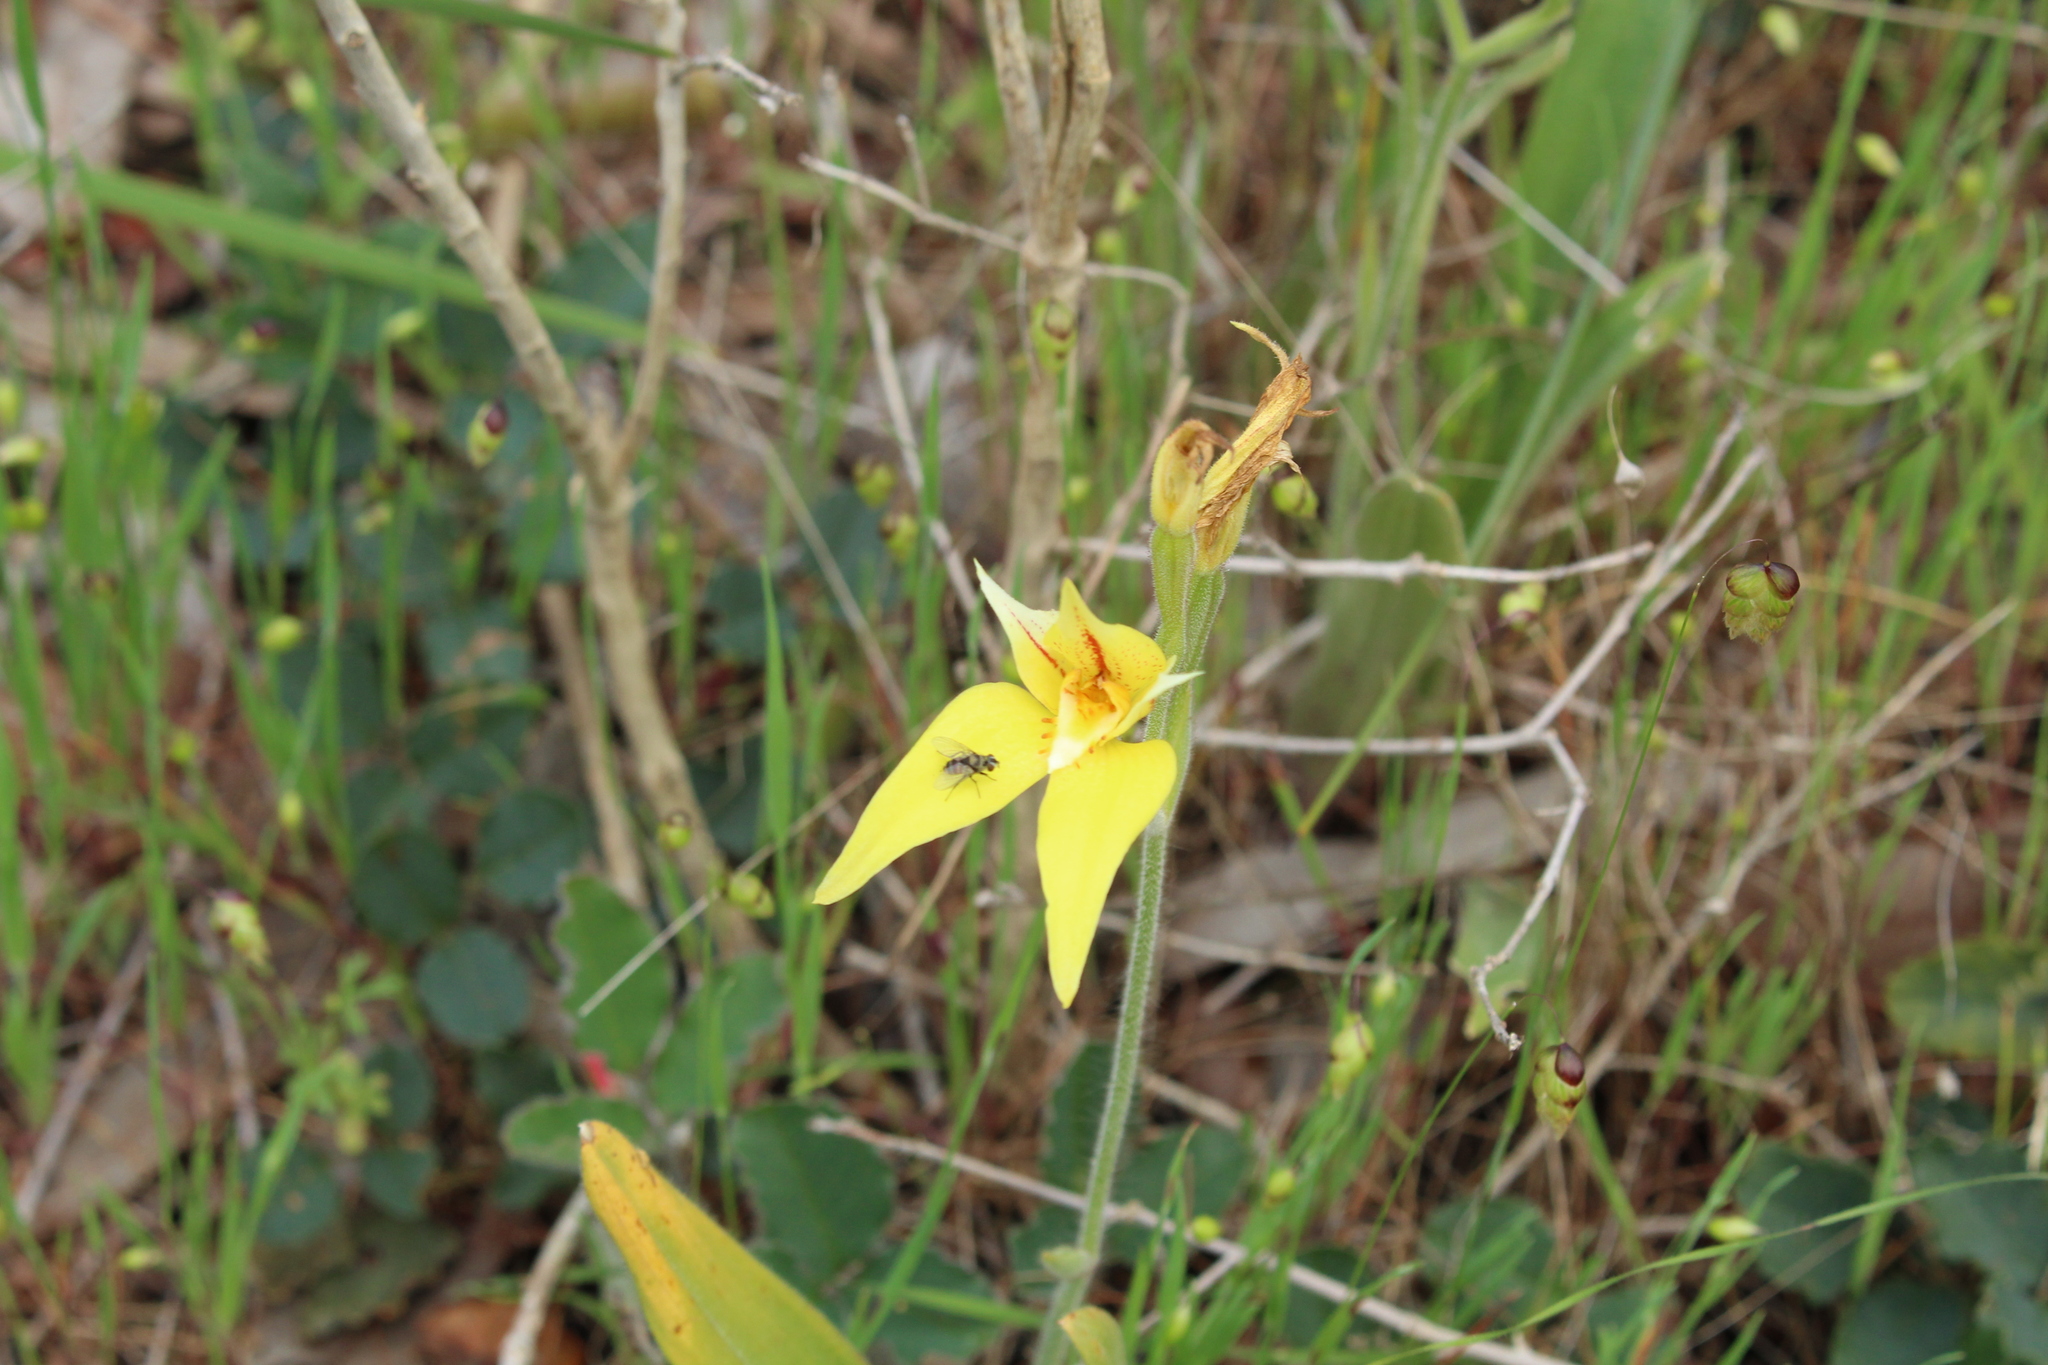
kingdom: Plantae
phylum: Tracheophyta
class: Liliopsida
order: Asparagales
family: Orchidaceae
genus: Caladenia
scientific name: Caladenia flava
